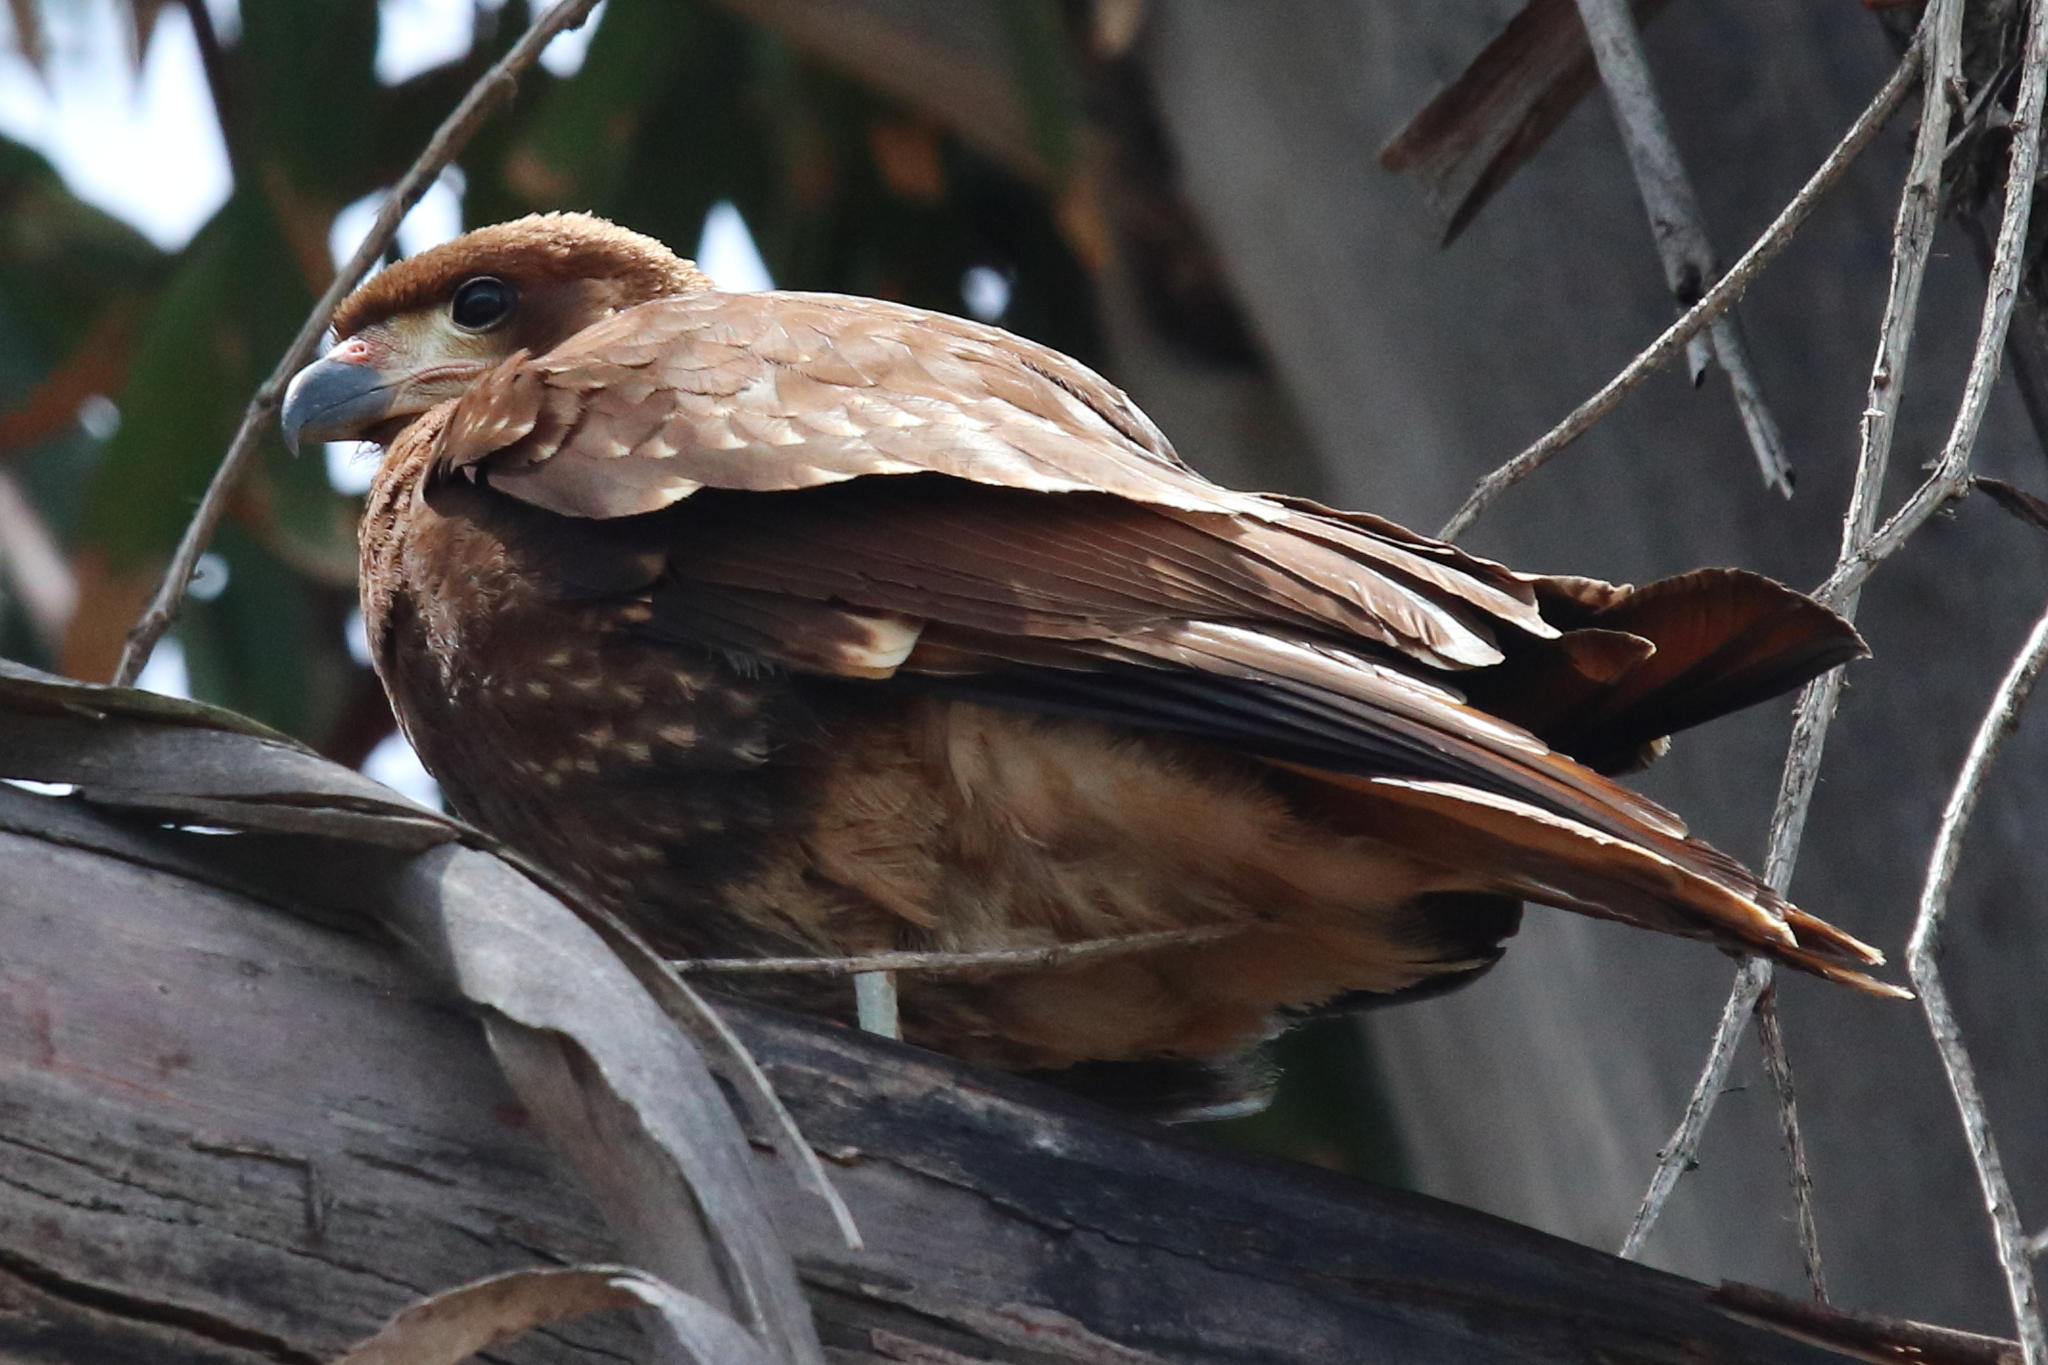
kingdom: Animalia
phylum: Chordata
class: Aves
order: Falconiformes
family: Falconidae
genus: Daptrius
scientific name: Daptrius
